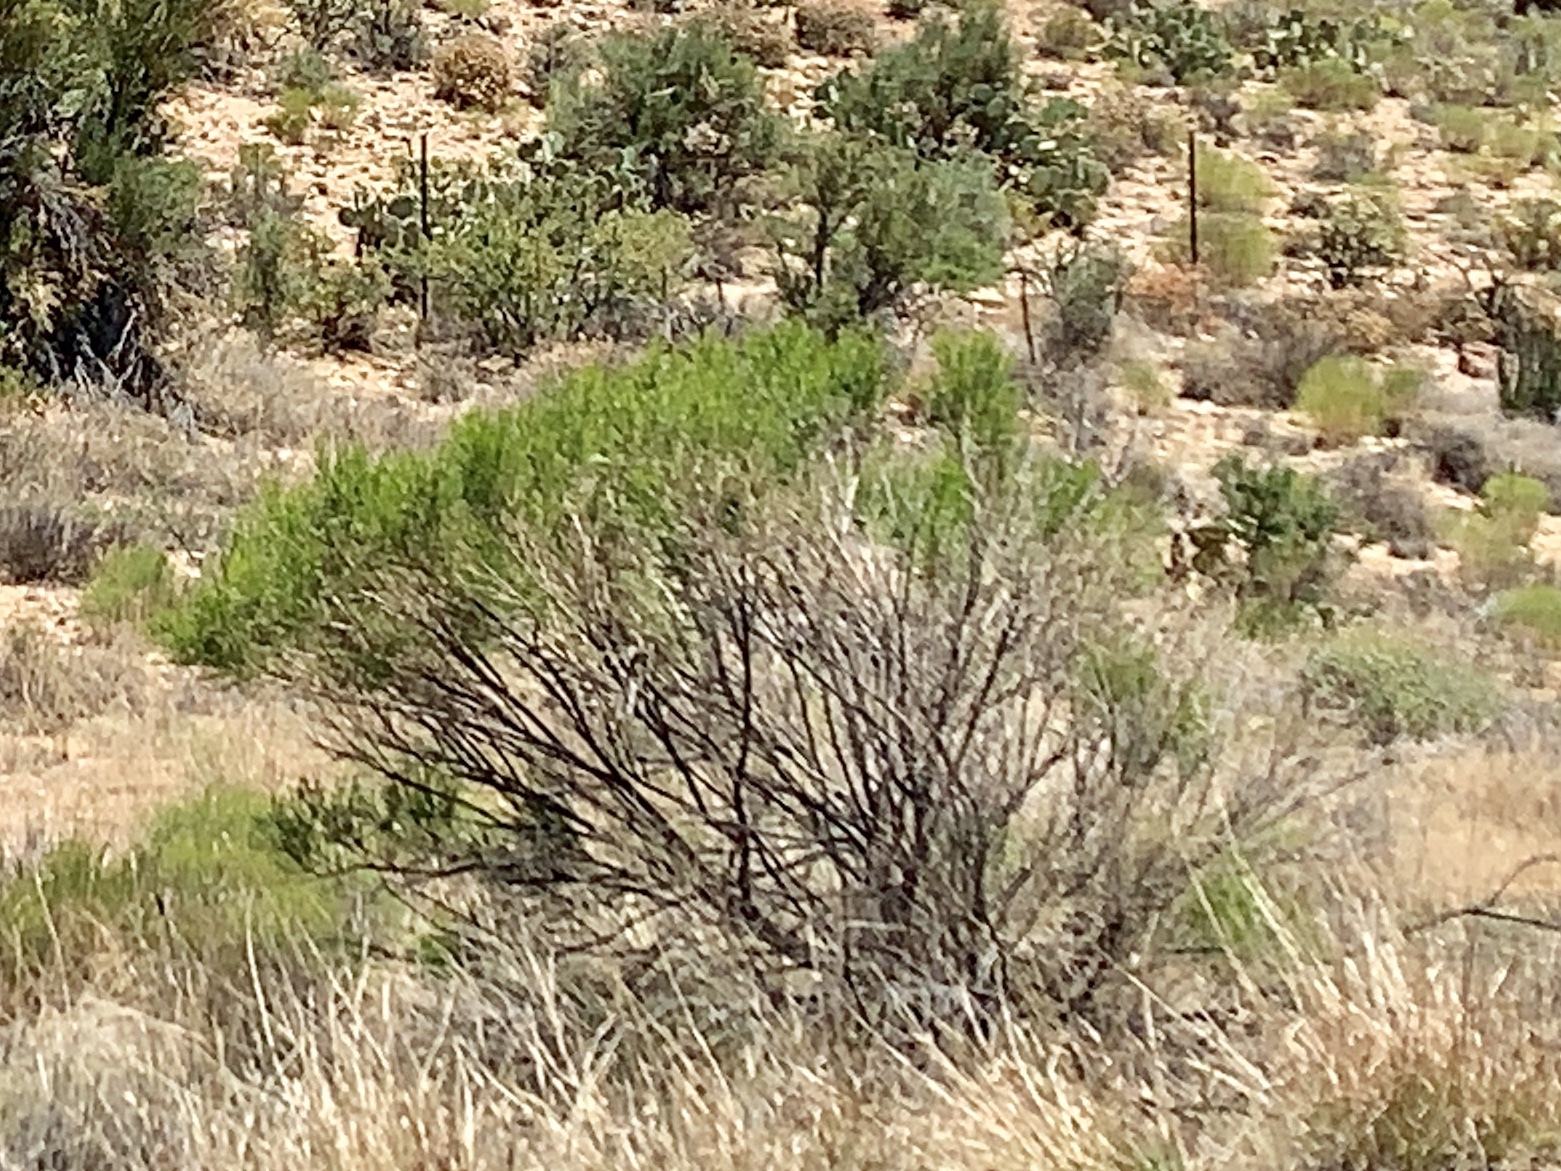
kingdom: Plantae
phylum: Tracheophyta
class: Magnoliopsida
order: Asterales
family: Asteraceae
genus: Baccharis
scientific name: Baccharis sarothroides
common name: Desert-broom
